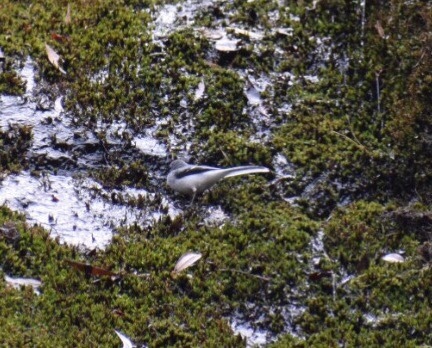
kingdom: Animalia
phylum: Chordata
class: Aves
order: Passeriformes
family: Motacillidae
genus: Motacilla
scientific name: Motacilla clara
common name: Mountain wagtail
